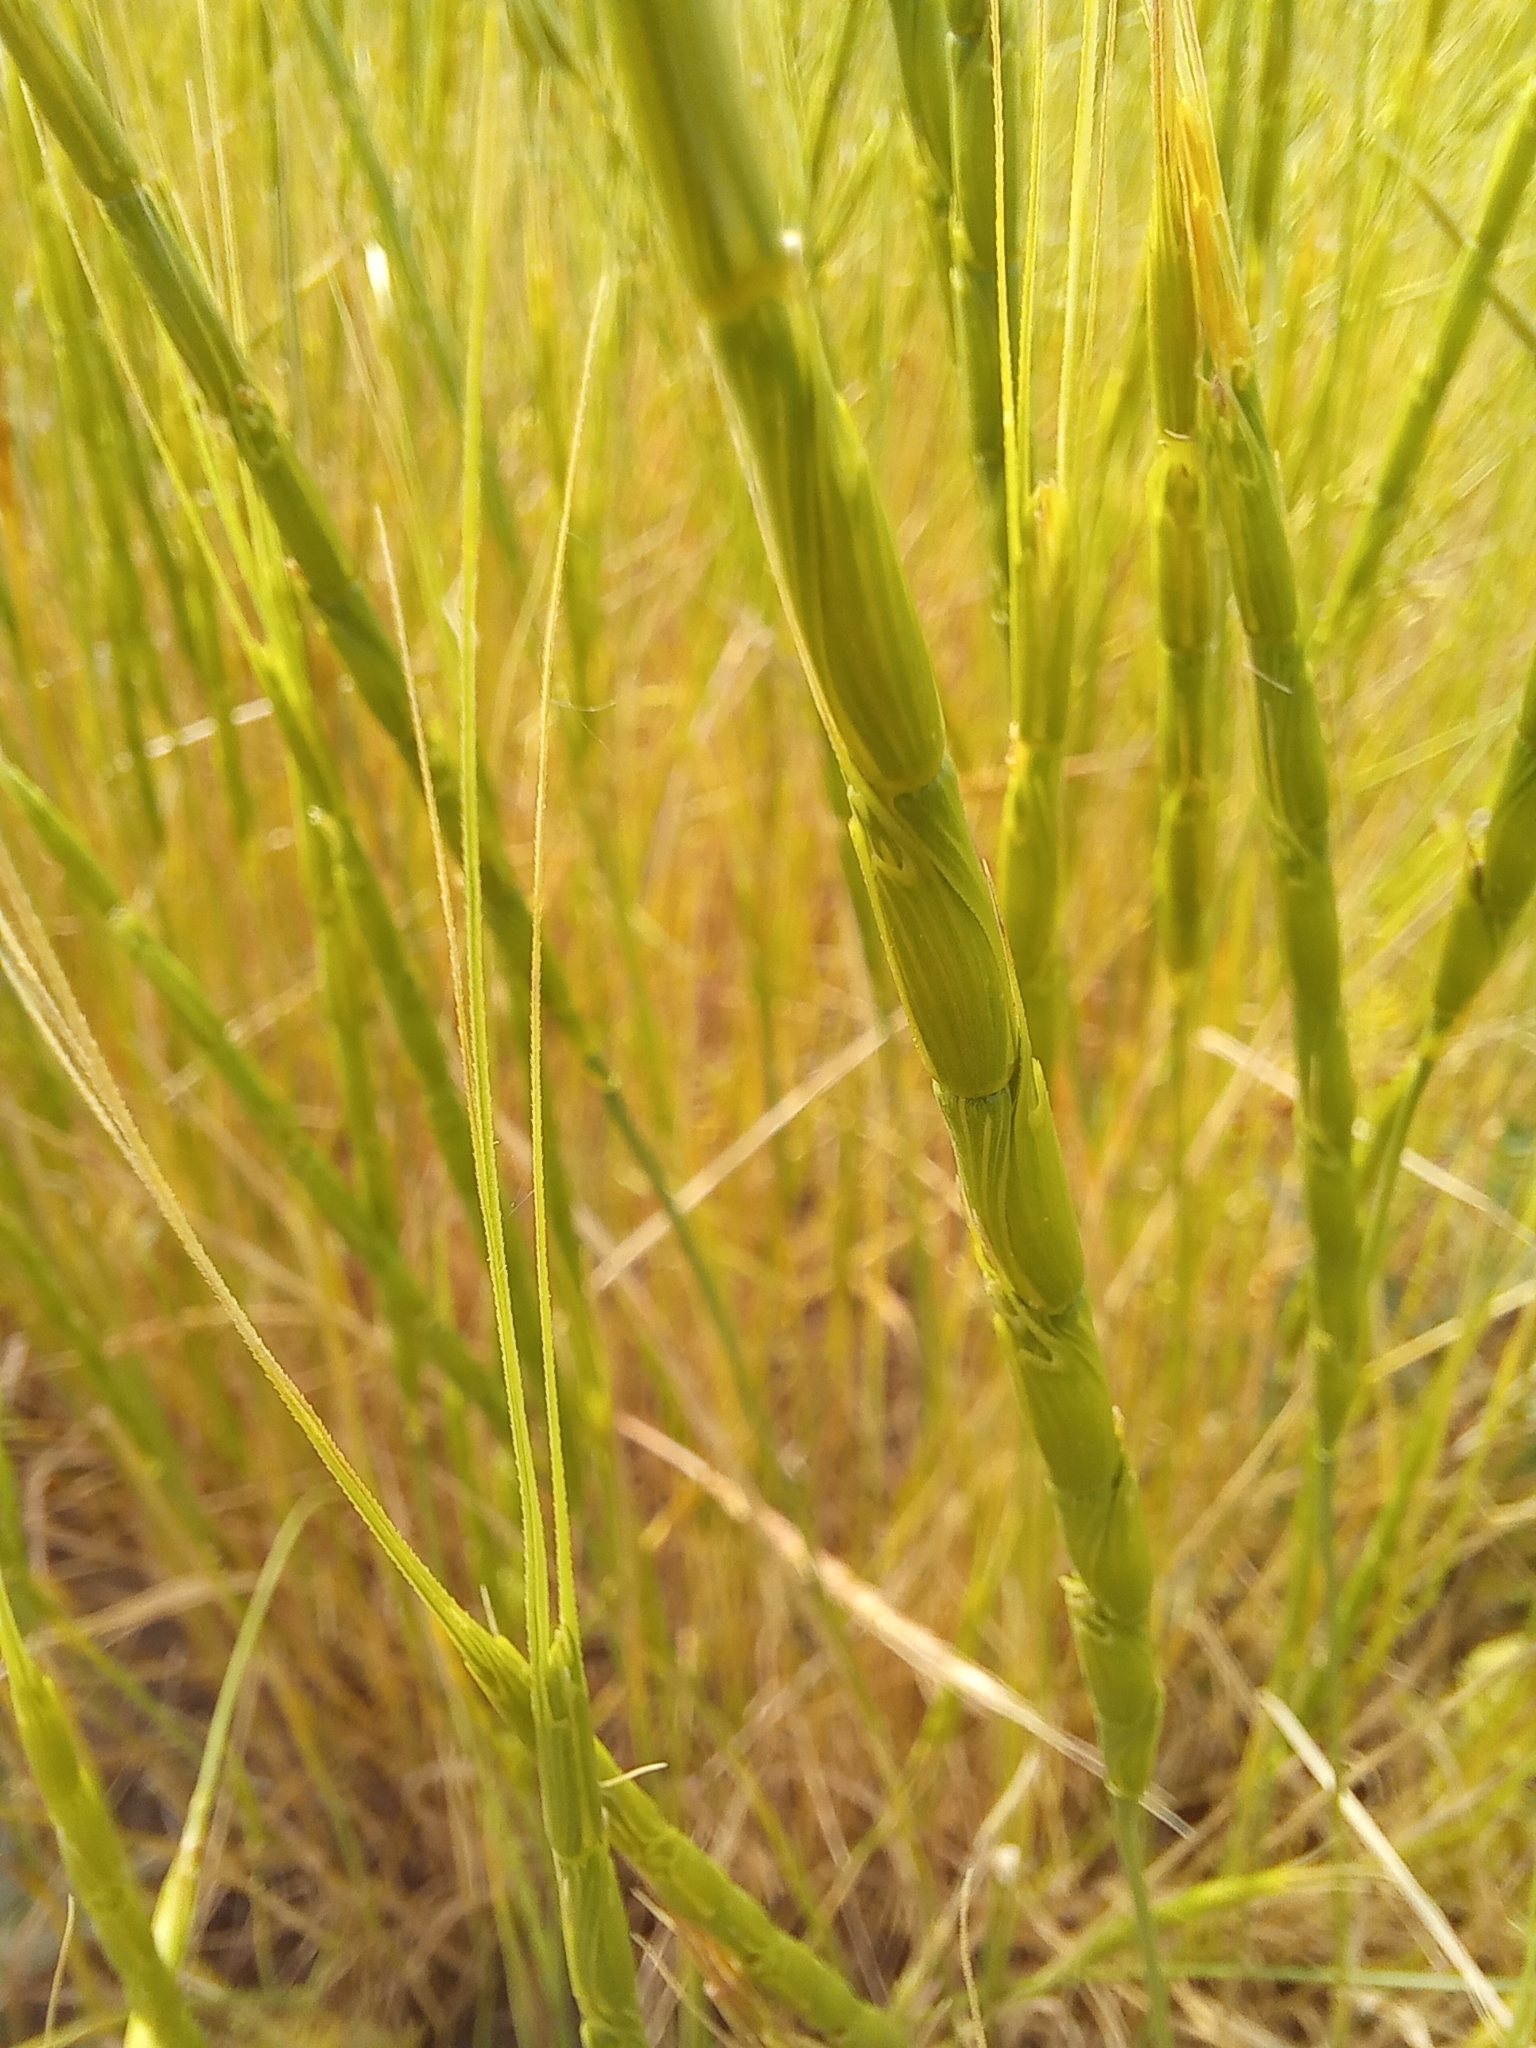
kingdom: Plantae
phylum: Tracheophyta
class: Liliopsida
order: Poales
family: Poaceae
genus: Aegilops
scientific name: Aegilops cylindrica
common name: Jointed goatgrass
